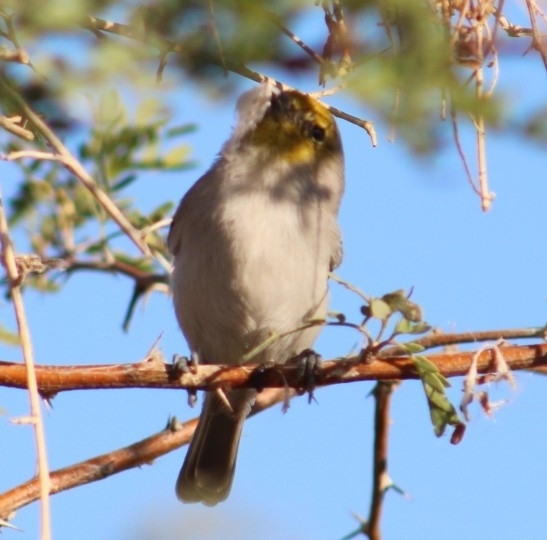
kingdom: Animalia
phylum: Chordata
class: Aves
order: Passeriformes
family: Remizidae
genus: Auriparus
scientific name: Auriparus flaviceps
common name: Verdin
